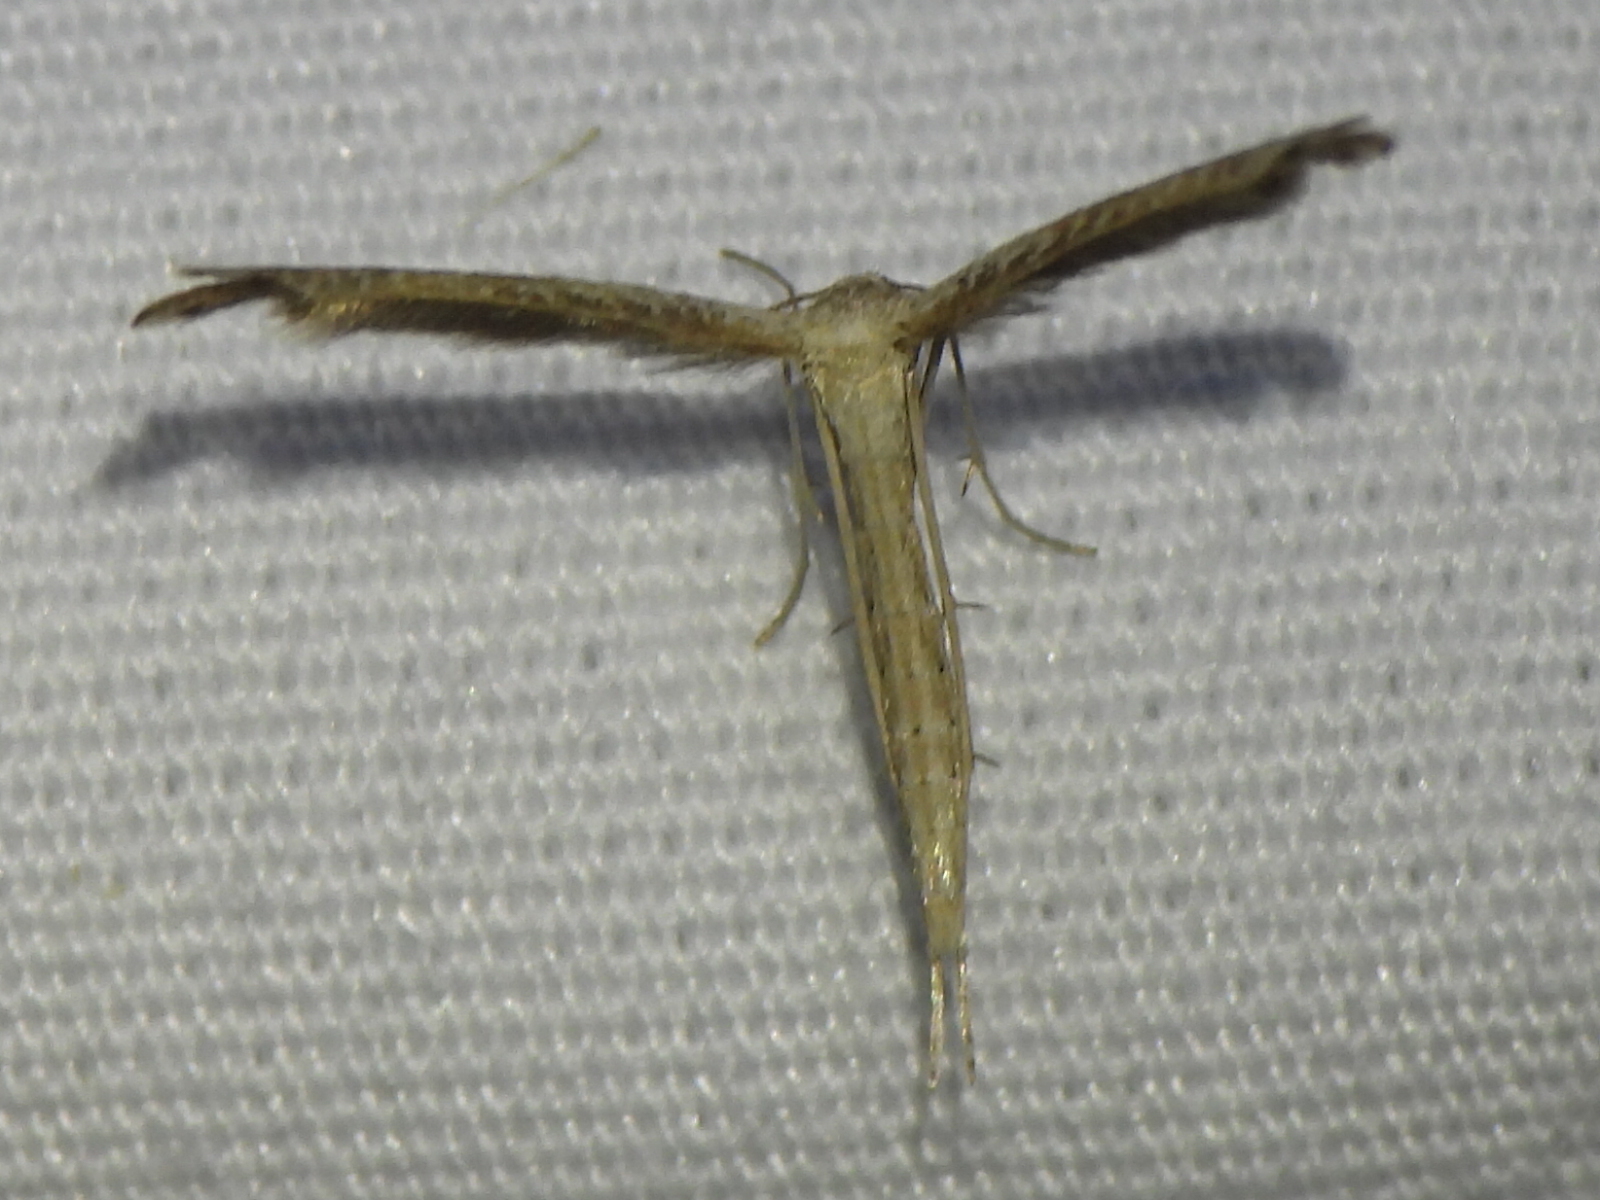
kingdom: Animalia
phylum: Arthropoda
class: Insecta
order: Lepidoptera
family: Pterophoridae
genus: Lioptilodes
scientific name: Lioptilodes albistriolatus
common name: Moth
